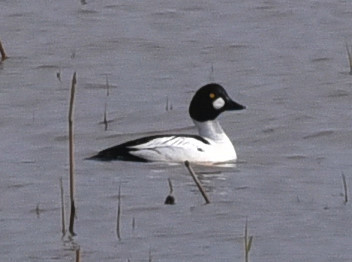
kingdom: Animalia
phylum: Chordata
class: Aves
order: Anseriformes
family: Anatidae
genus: Bucephala
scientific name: Bucephala clangula
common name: Common goldeneye
